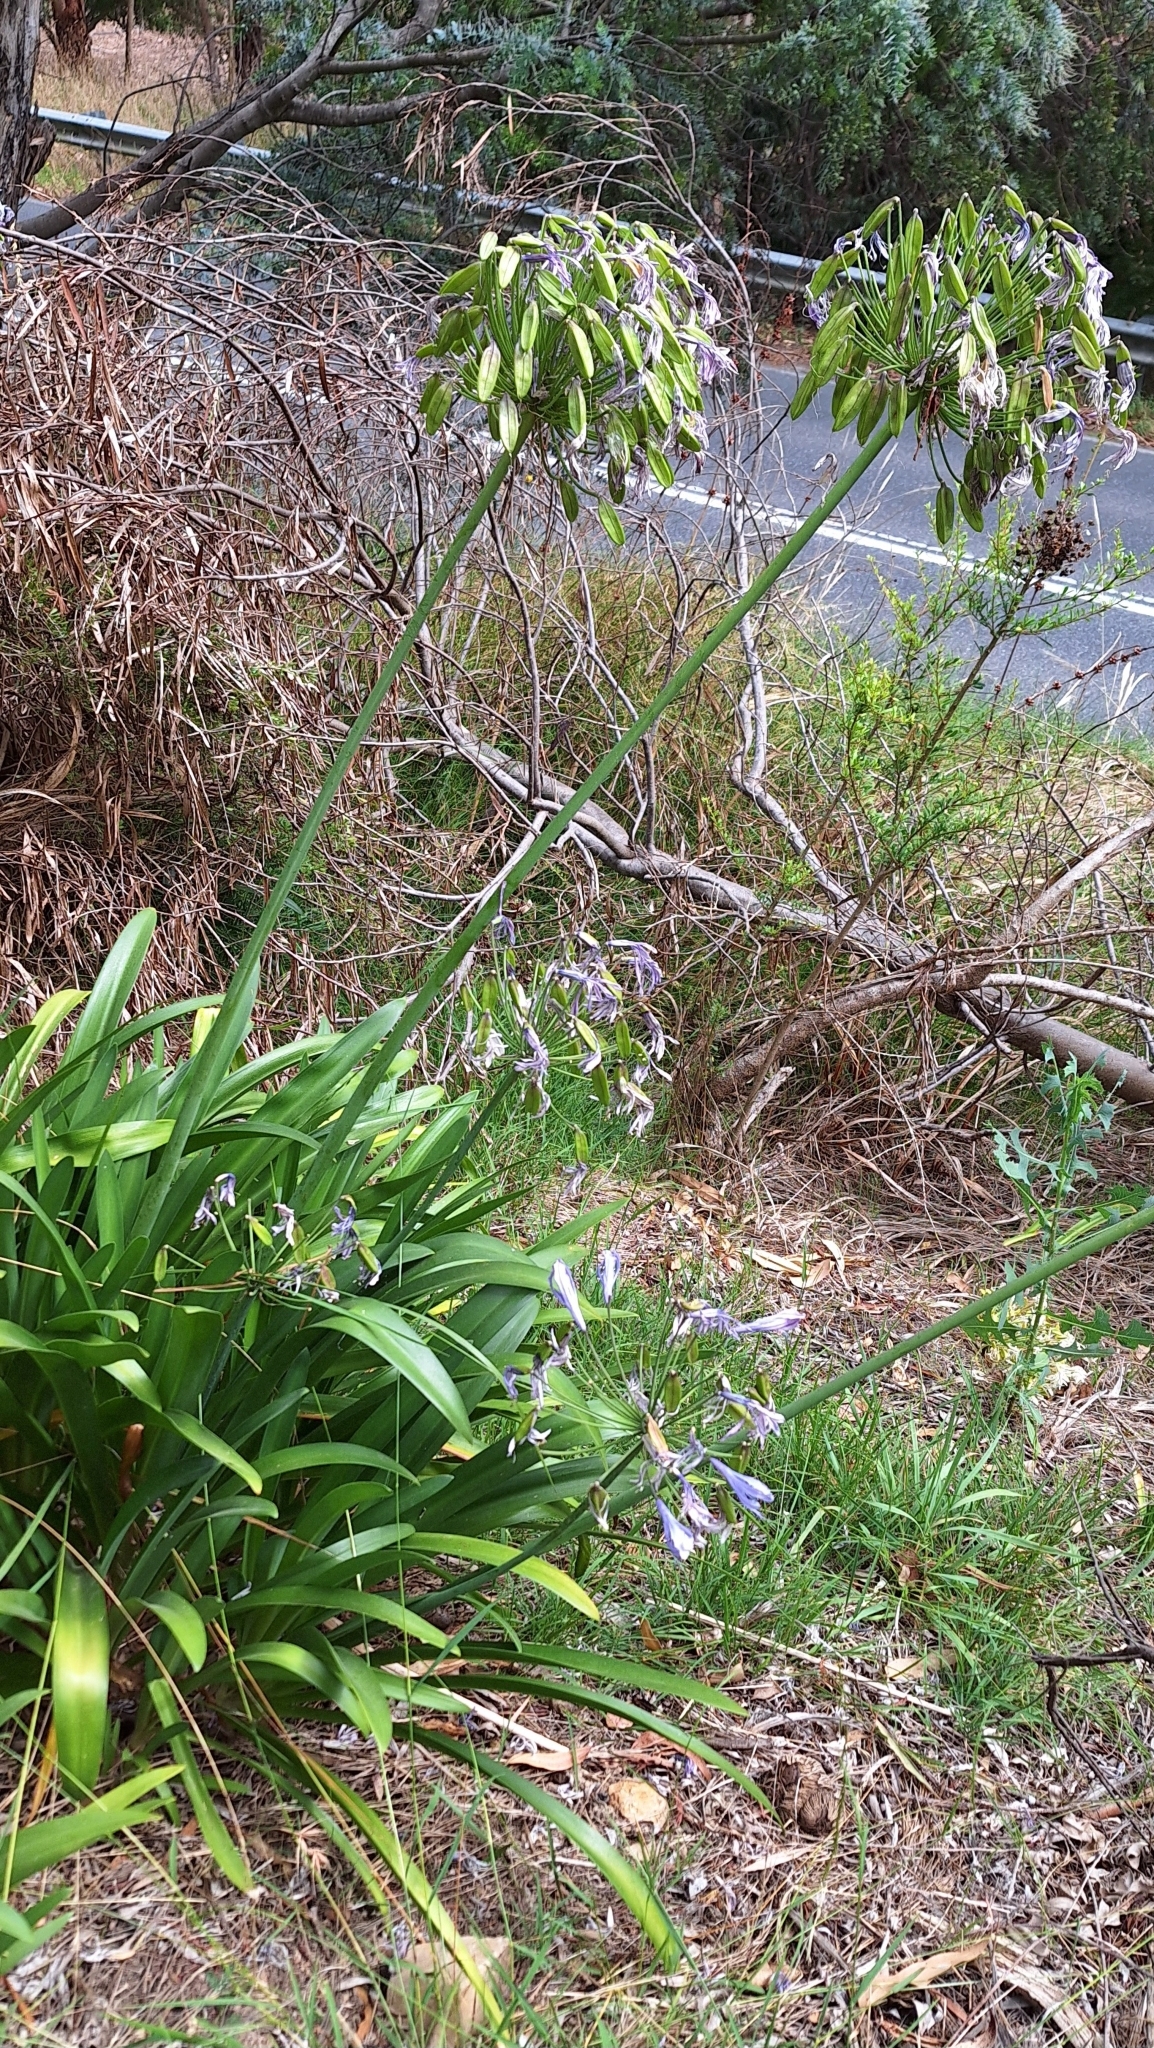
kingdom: Plantae
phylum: Tracheophyta
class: Liliopsida
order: Asparagales
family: Amaryllidaceae
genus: Agapanthus
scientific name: Agapanthus praecox
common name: African-lily
